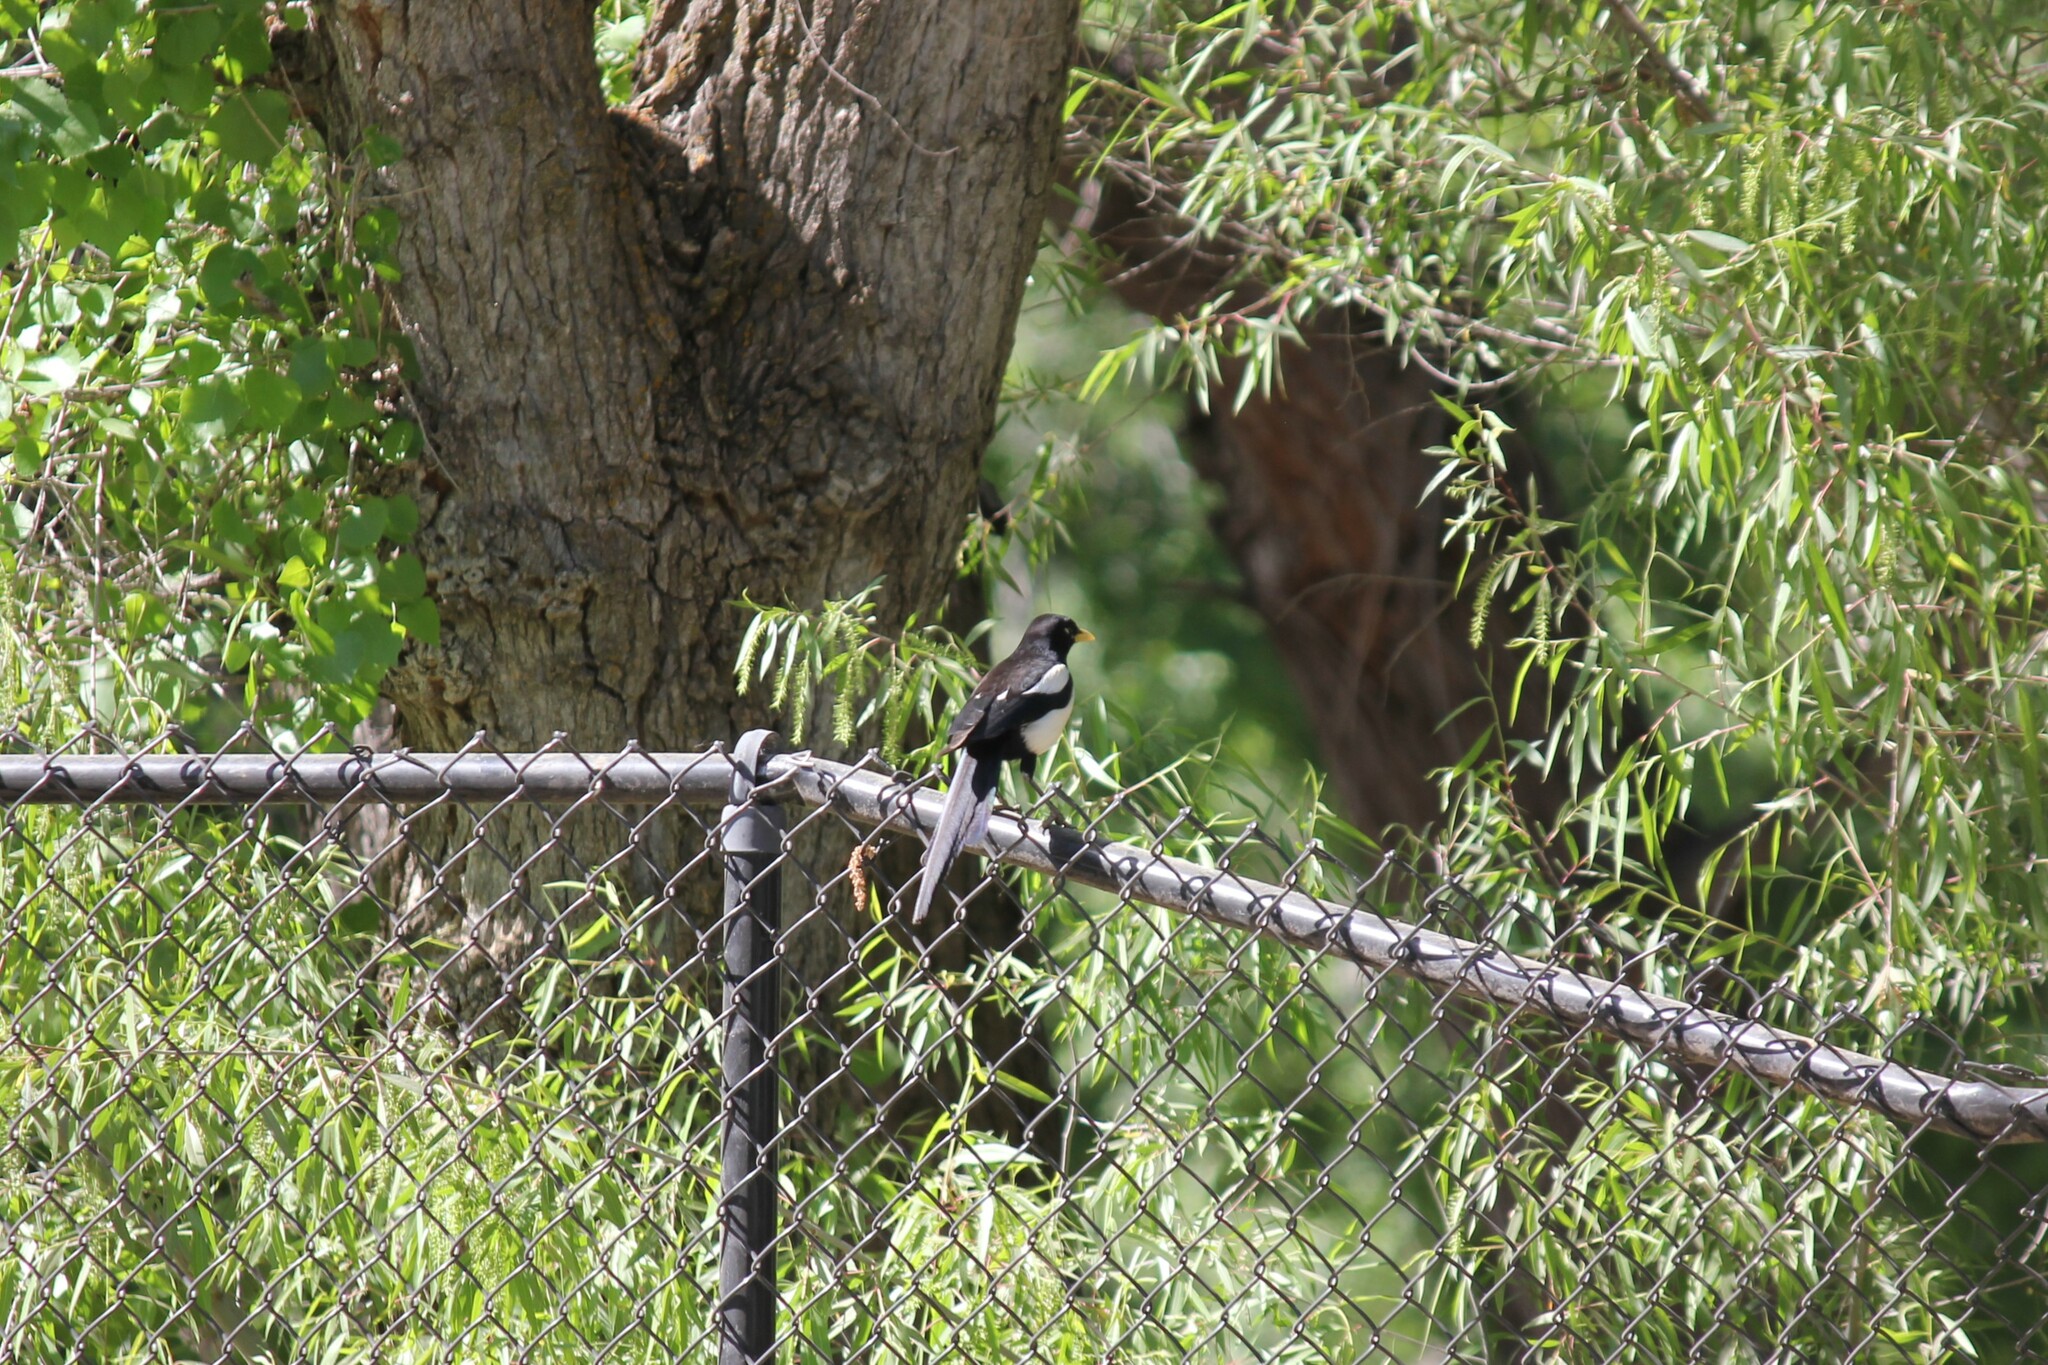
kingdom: Animalia
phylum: Chordata
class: Aves
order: Passeriformes
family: Corvidae
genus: Pica
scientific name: Pica nuttalli
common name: Yellow-billed magpie
